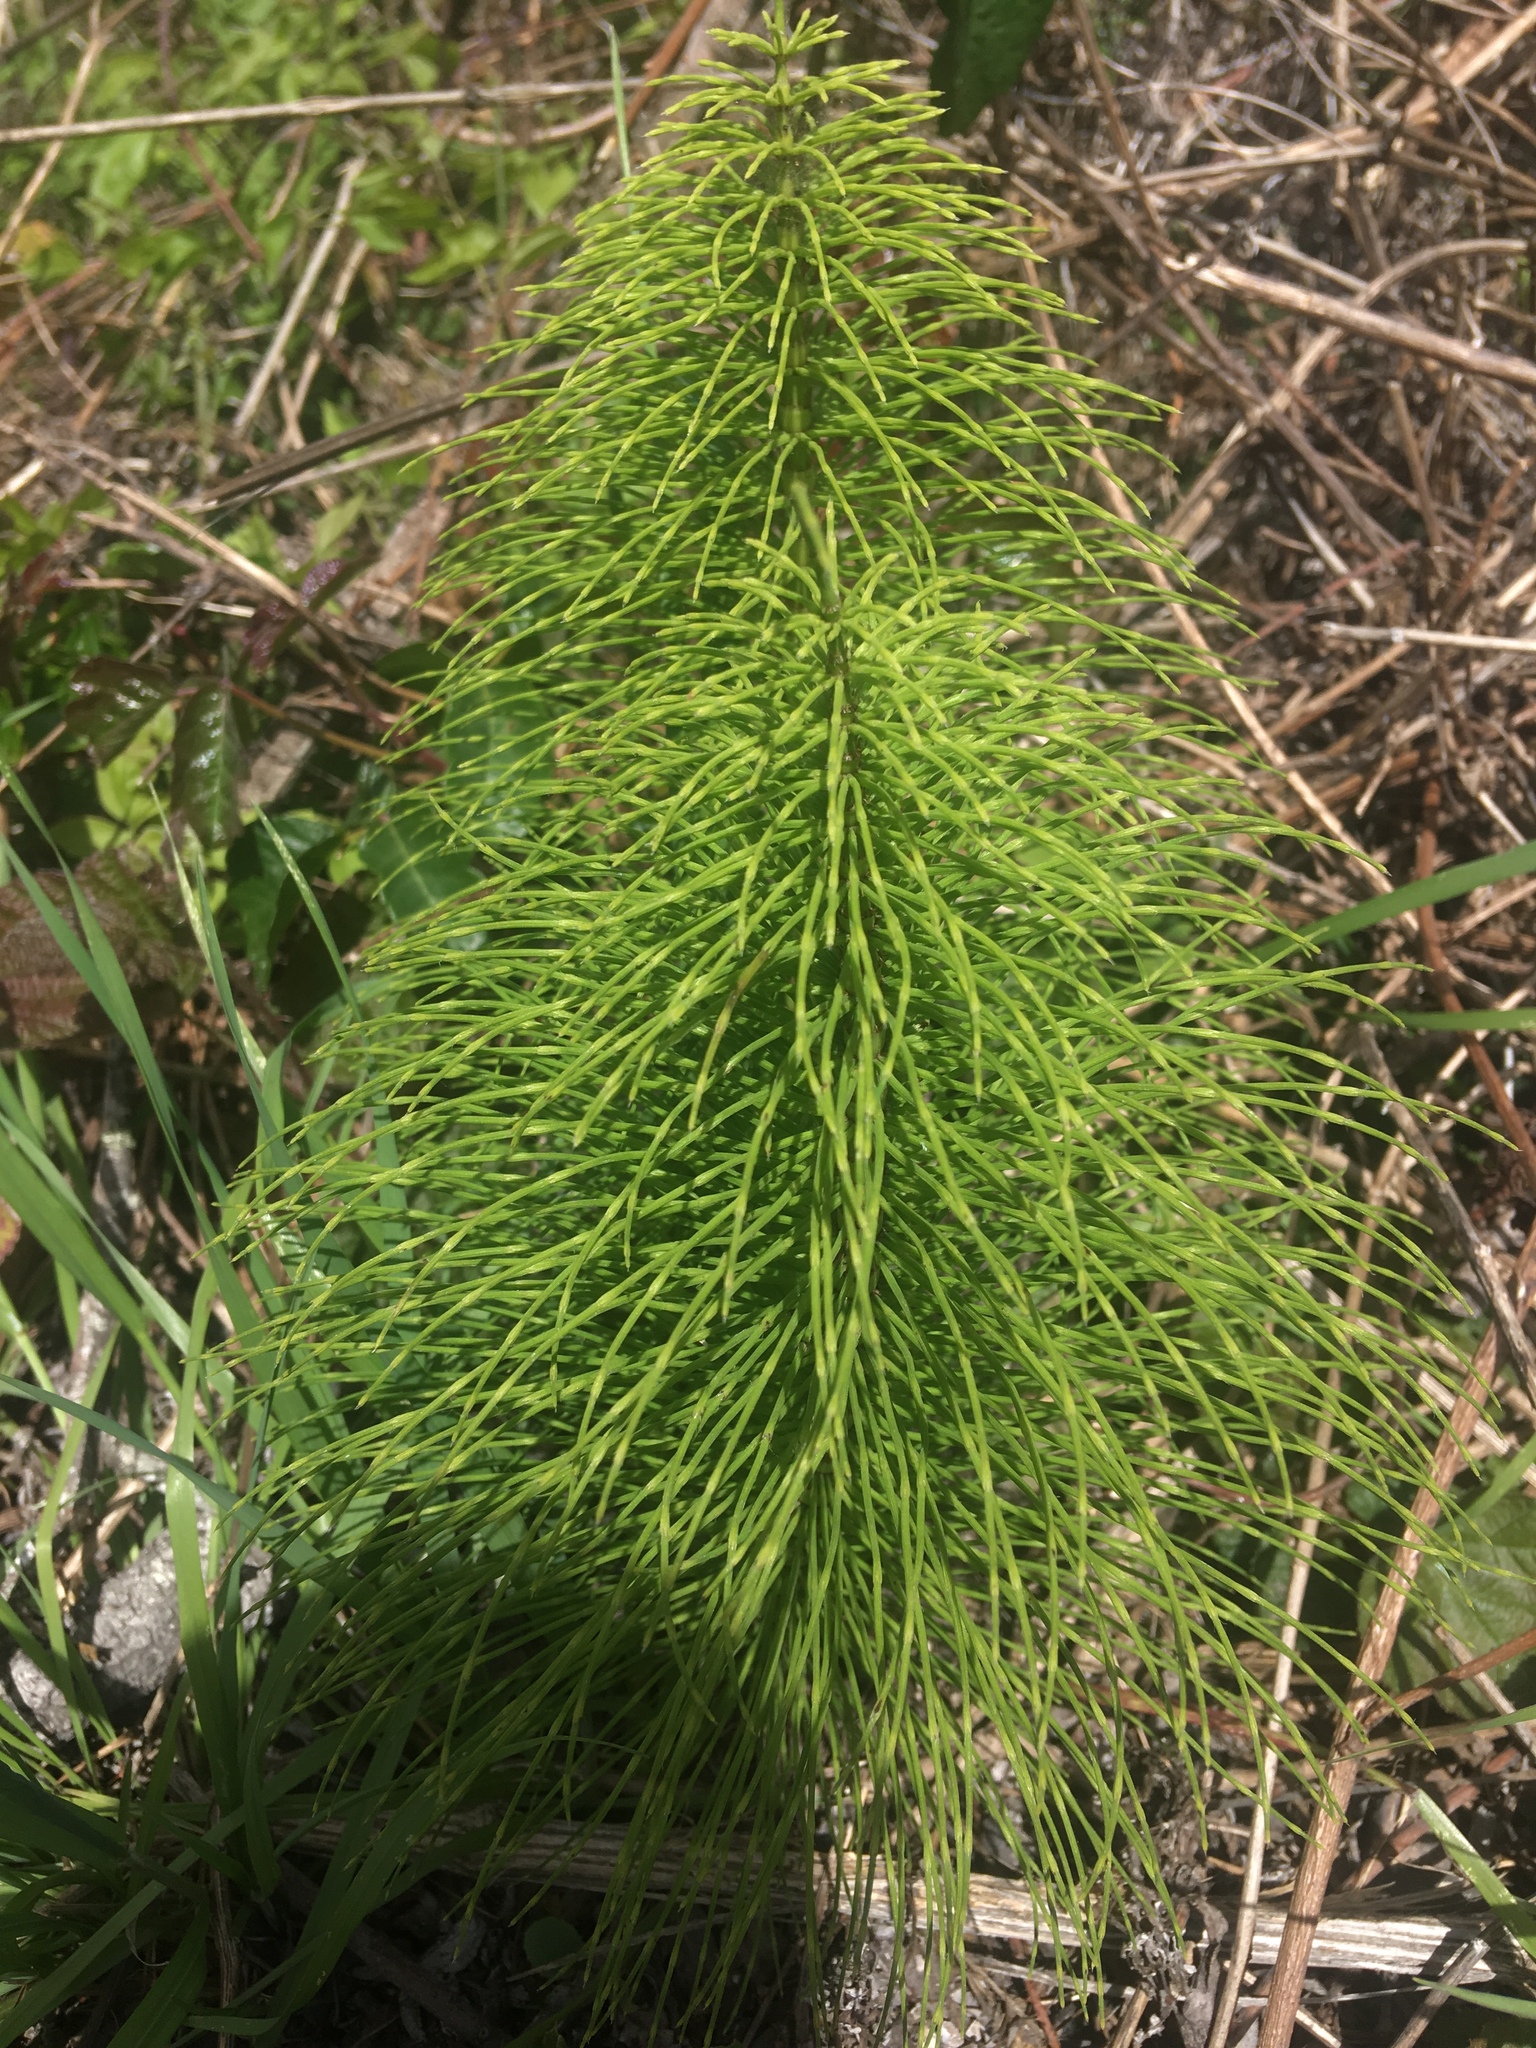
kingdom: Plantae
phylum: Tracheophyta
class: Polypodiopsida
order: Equisetales
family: Equisetaceae
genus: Equisetum
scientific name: Equisetum telmateia
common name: Great horsetail
